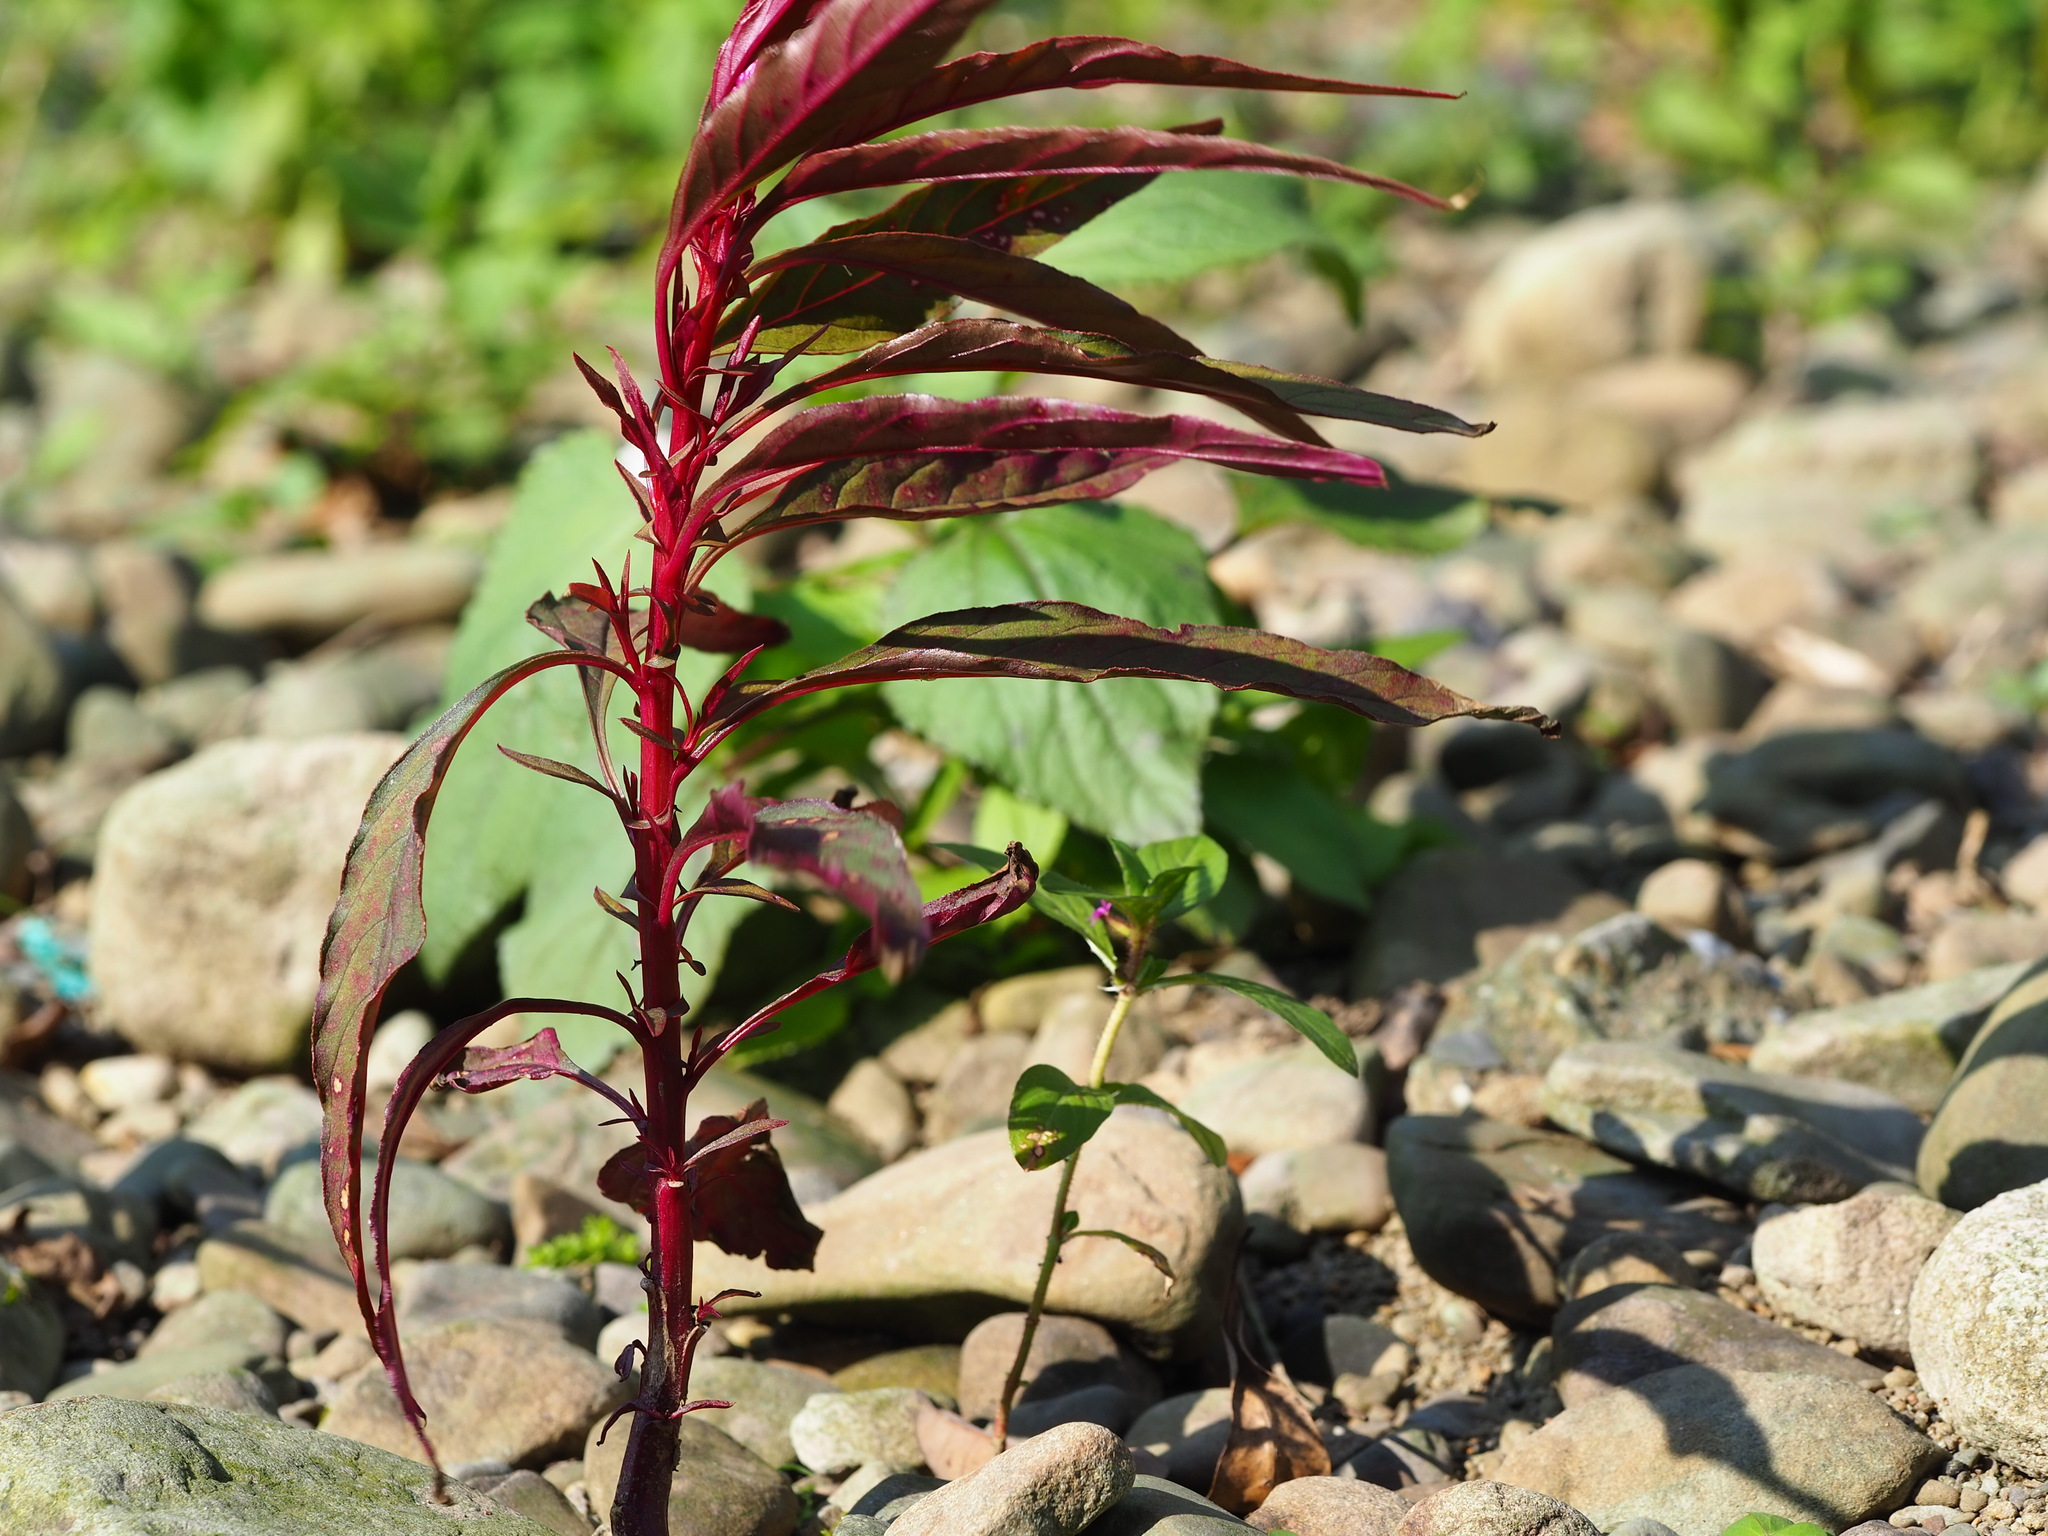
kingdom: Plantae
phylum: Tracheophyta
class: Magnoliopsida
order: Caryophyllales
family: Amaranthaceae
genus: Celosia
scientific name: Celosia argentea
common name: Feather cockscomb
